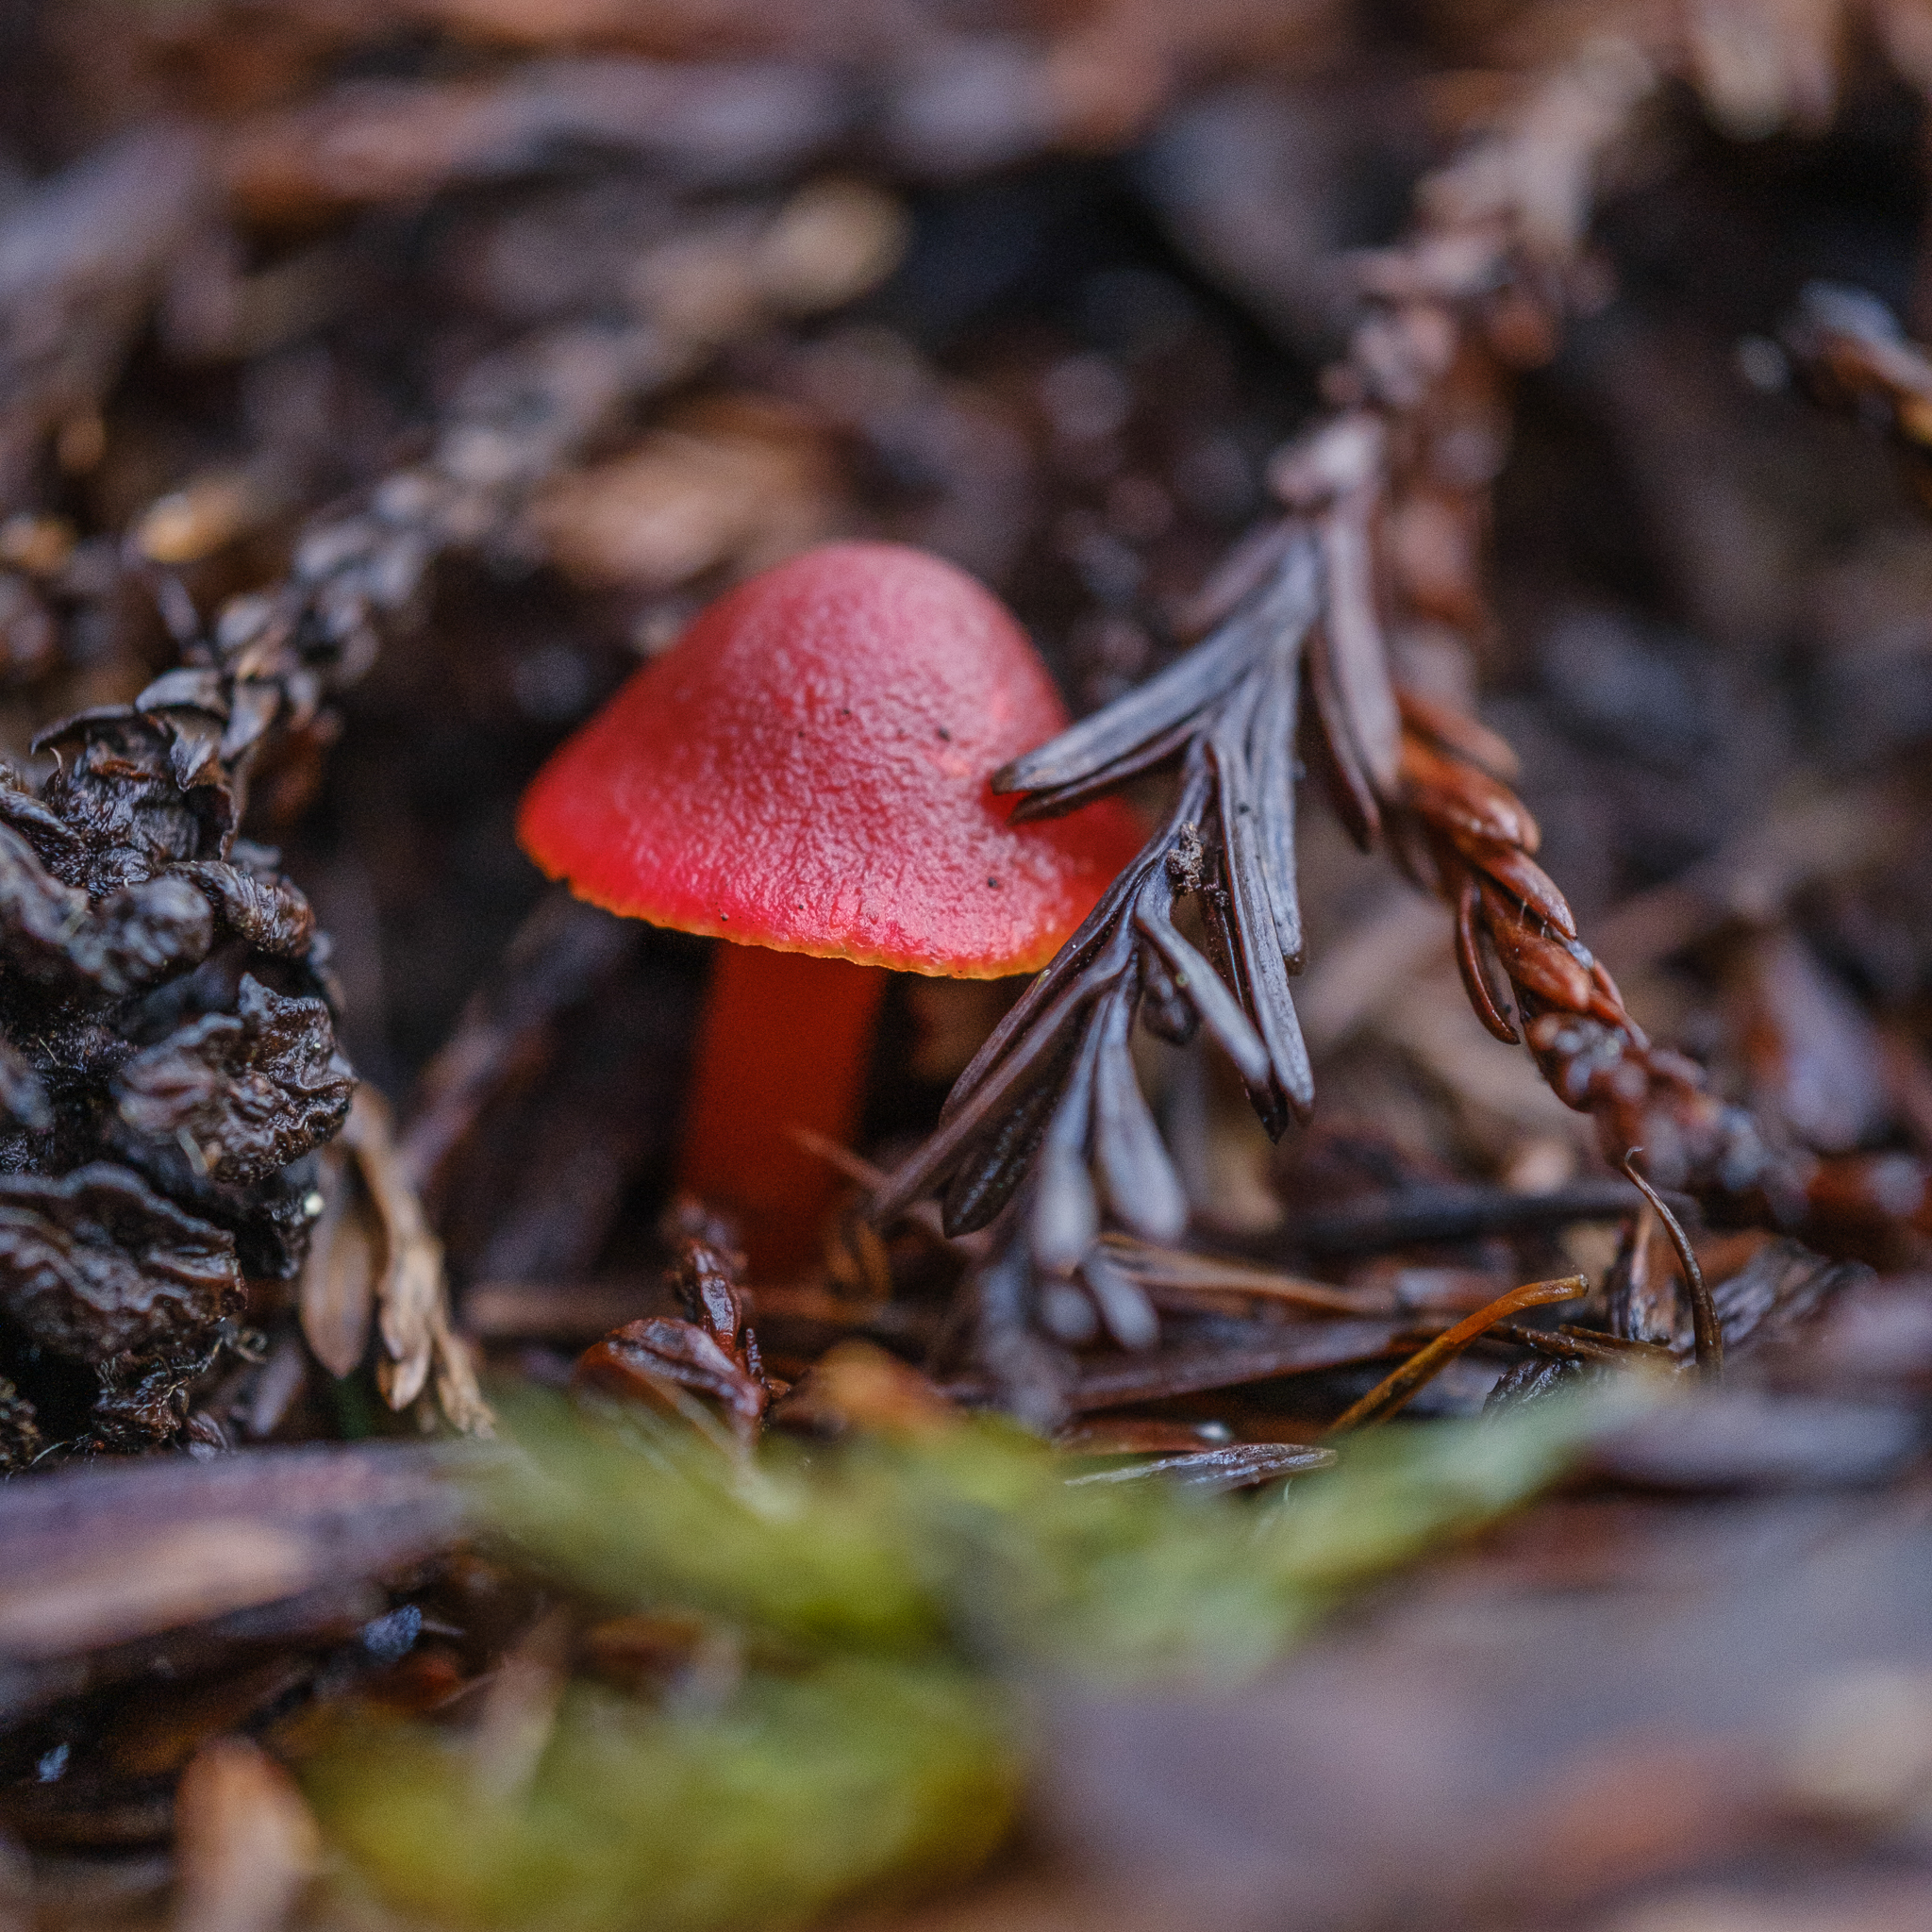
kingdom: Fungi
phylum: Basidiomycota
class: Agaricomycetes
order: Agaricales
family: Hygrophoraceae
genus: Hygrocybe
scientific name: Hygrocybe coccinea
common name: Scarlet hood
